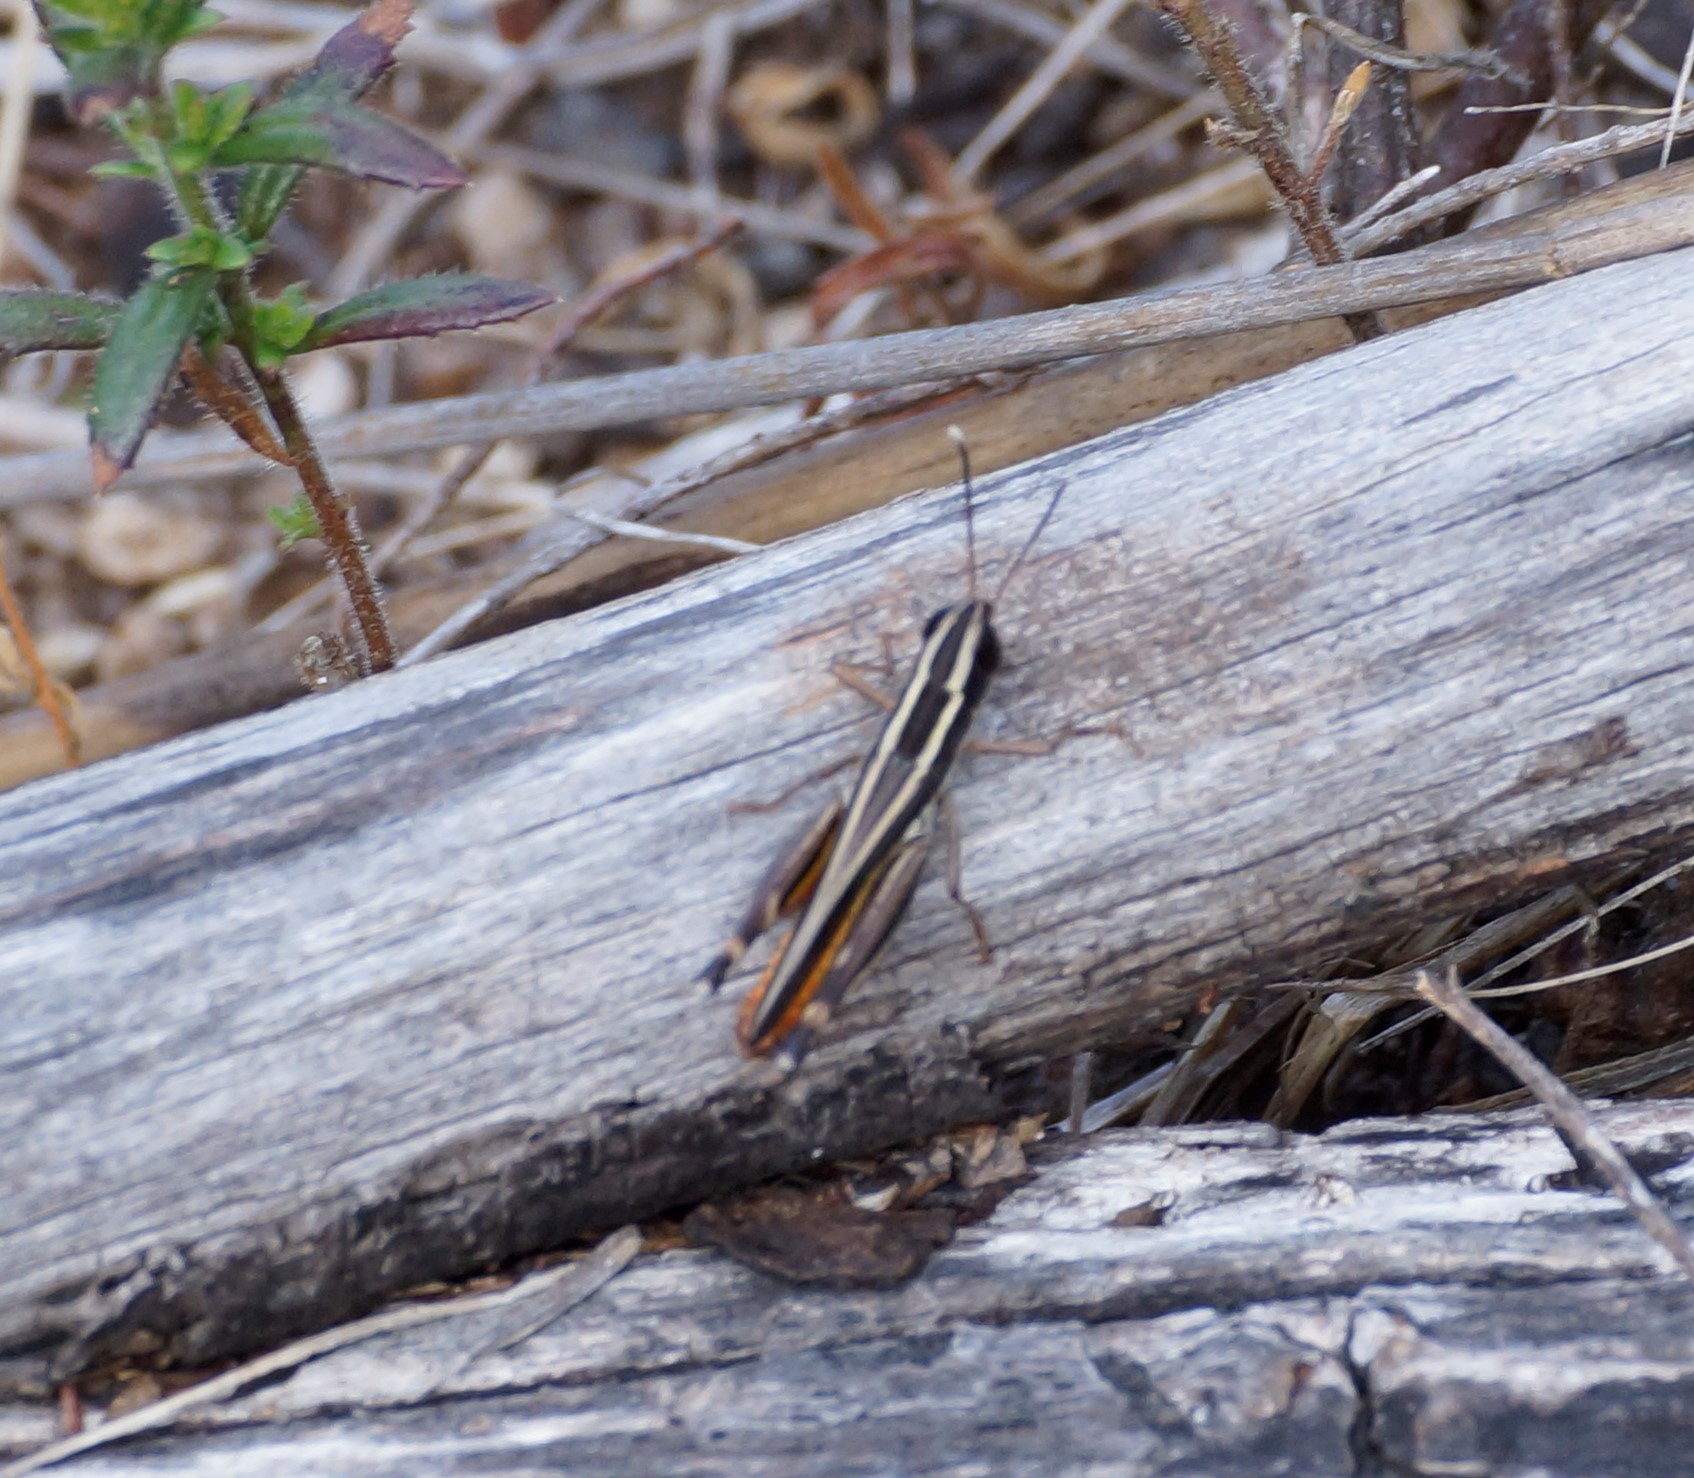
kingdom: Animalia
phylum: Arthropoda
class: Insecta
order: Orthoptera
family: Acrididae
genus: Macrotona
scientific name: Macrotona australis
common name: Common macrotona
